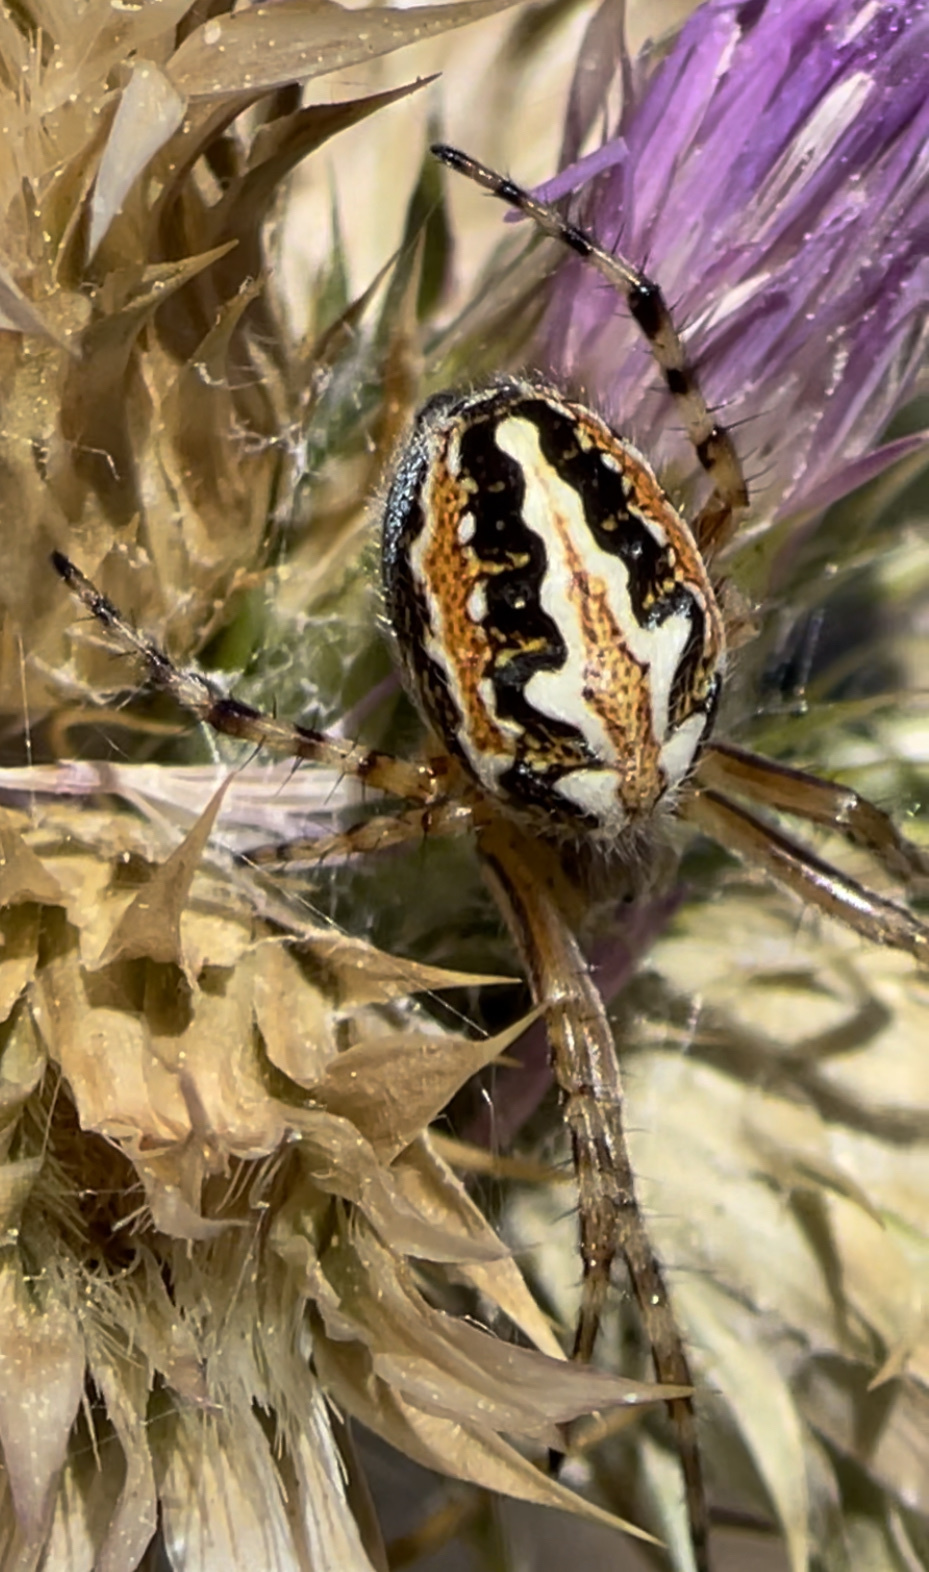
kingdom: Animalia
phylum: Arthropoda
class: Arachnida
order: Araneae
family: Araneidae
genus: Aculepeira
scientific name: Aculepeira armida
